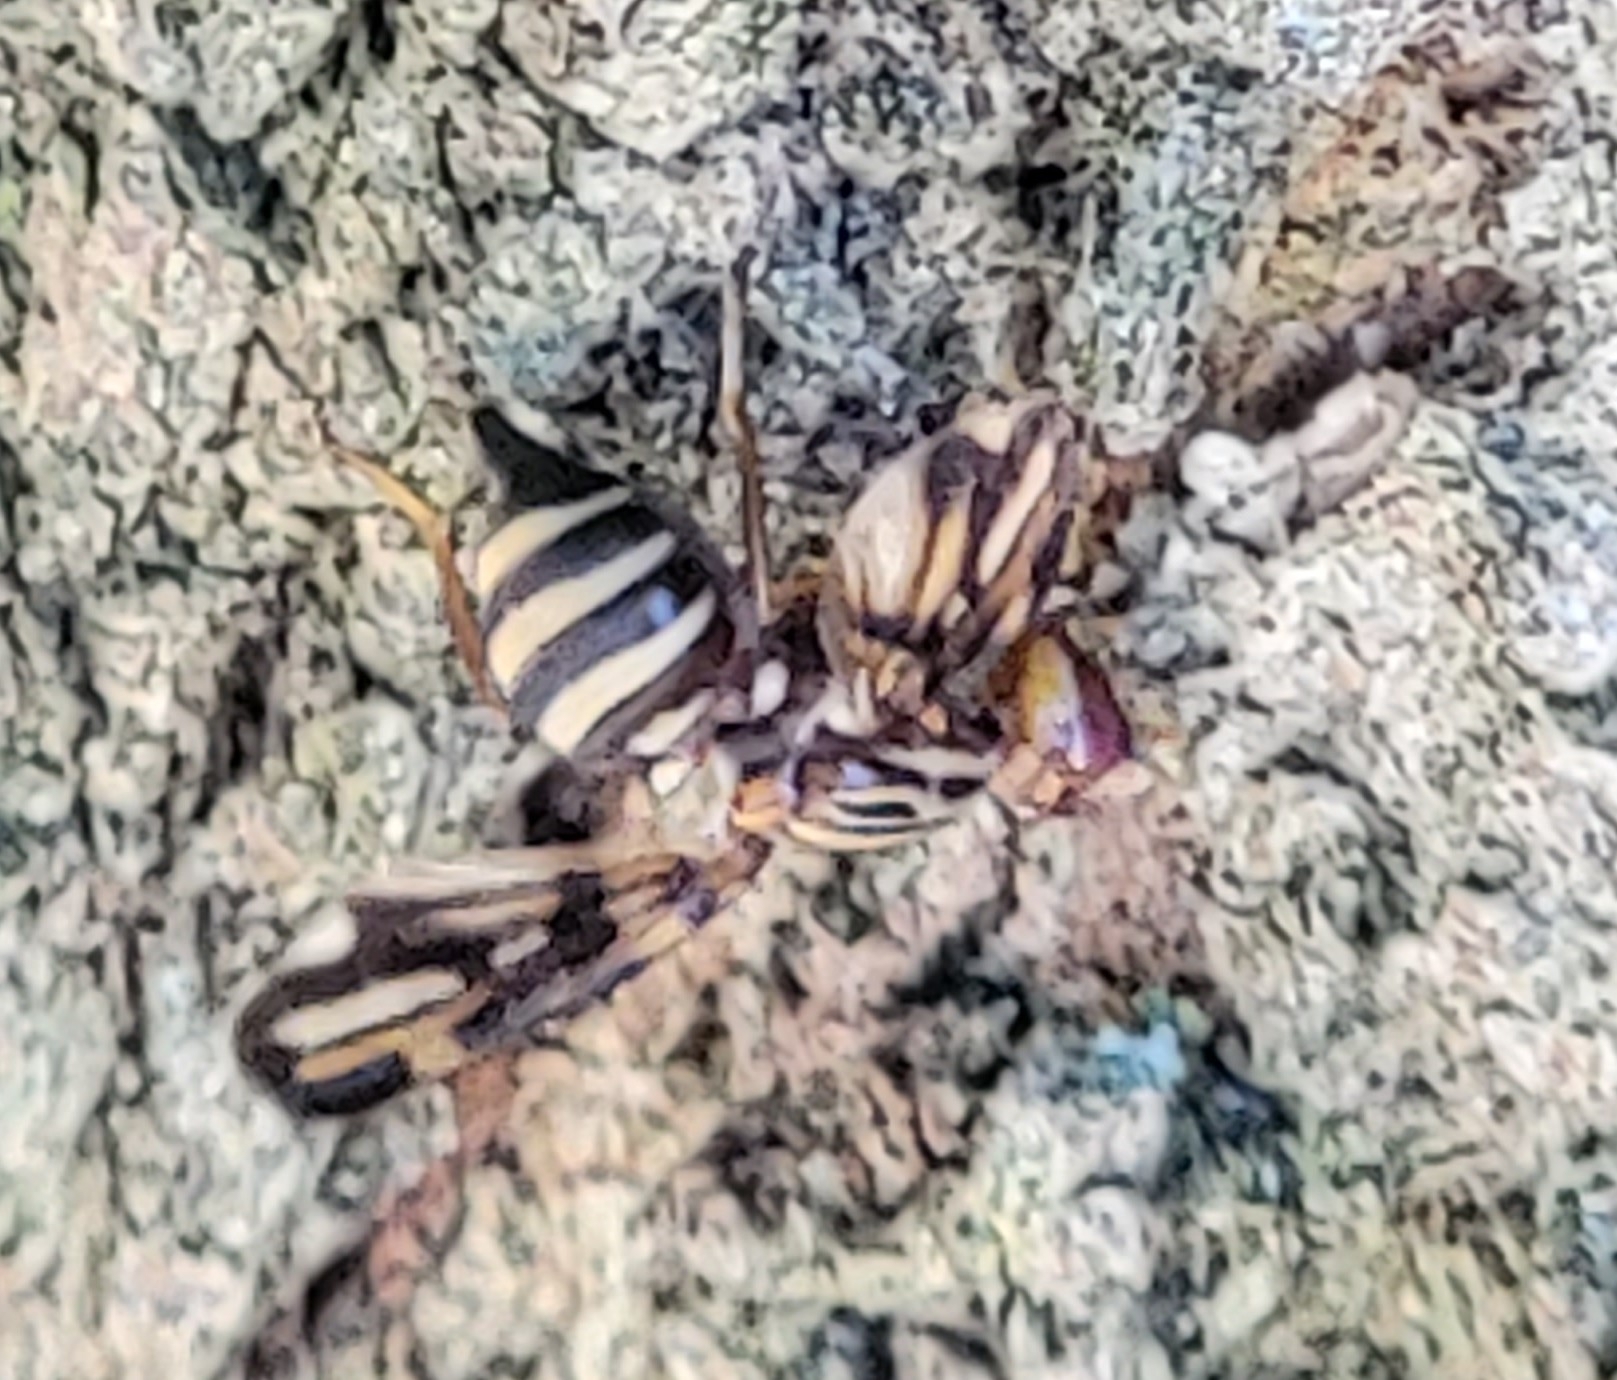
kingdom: Animalia
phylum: Arthropoda
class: Insecta
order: Diptera
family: Ulidiidae
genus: Idana
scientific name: Idana marginata
